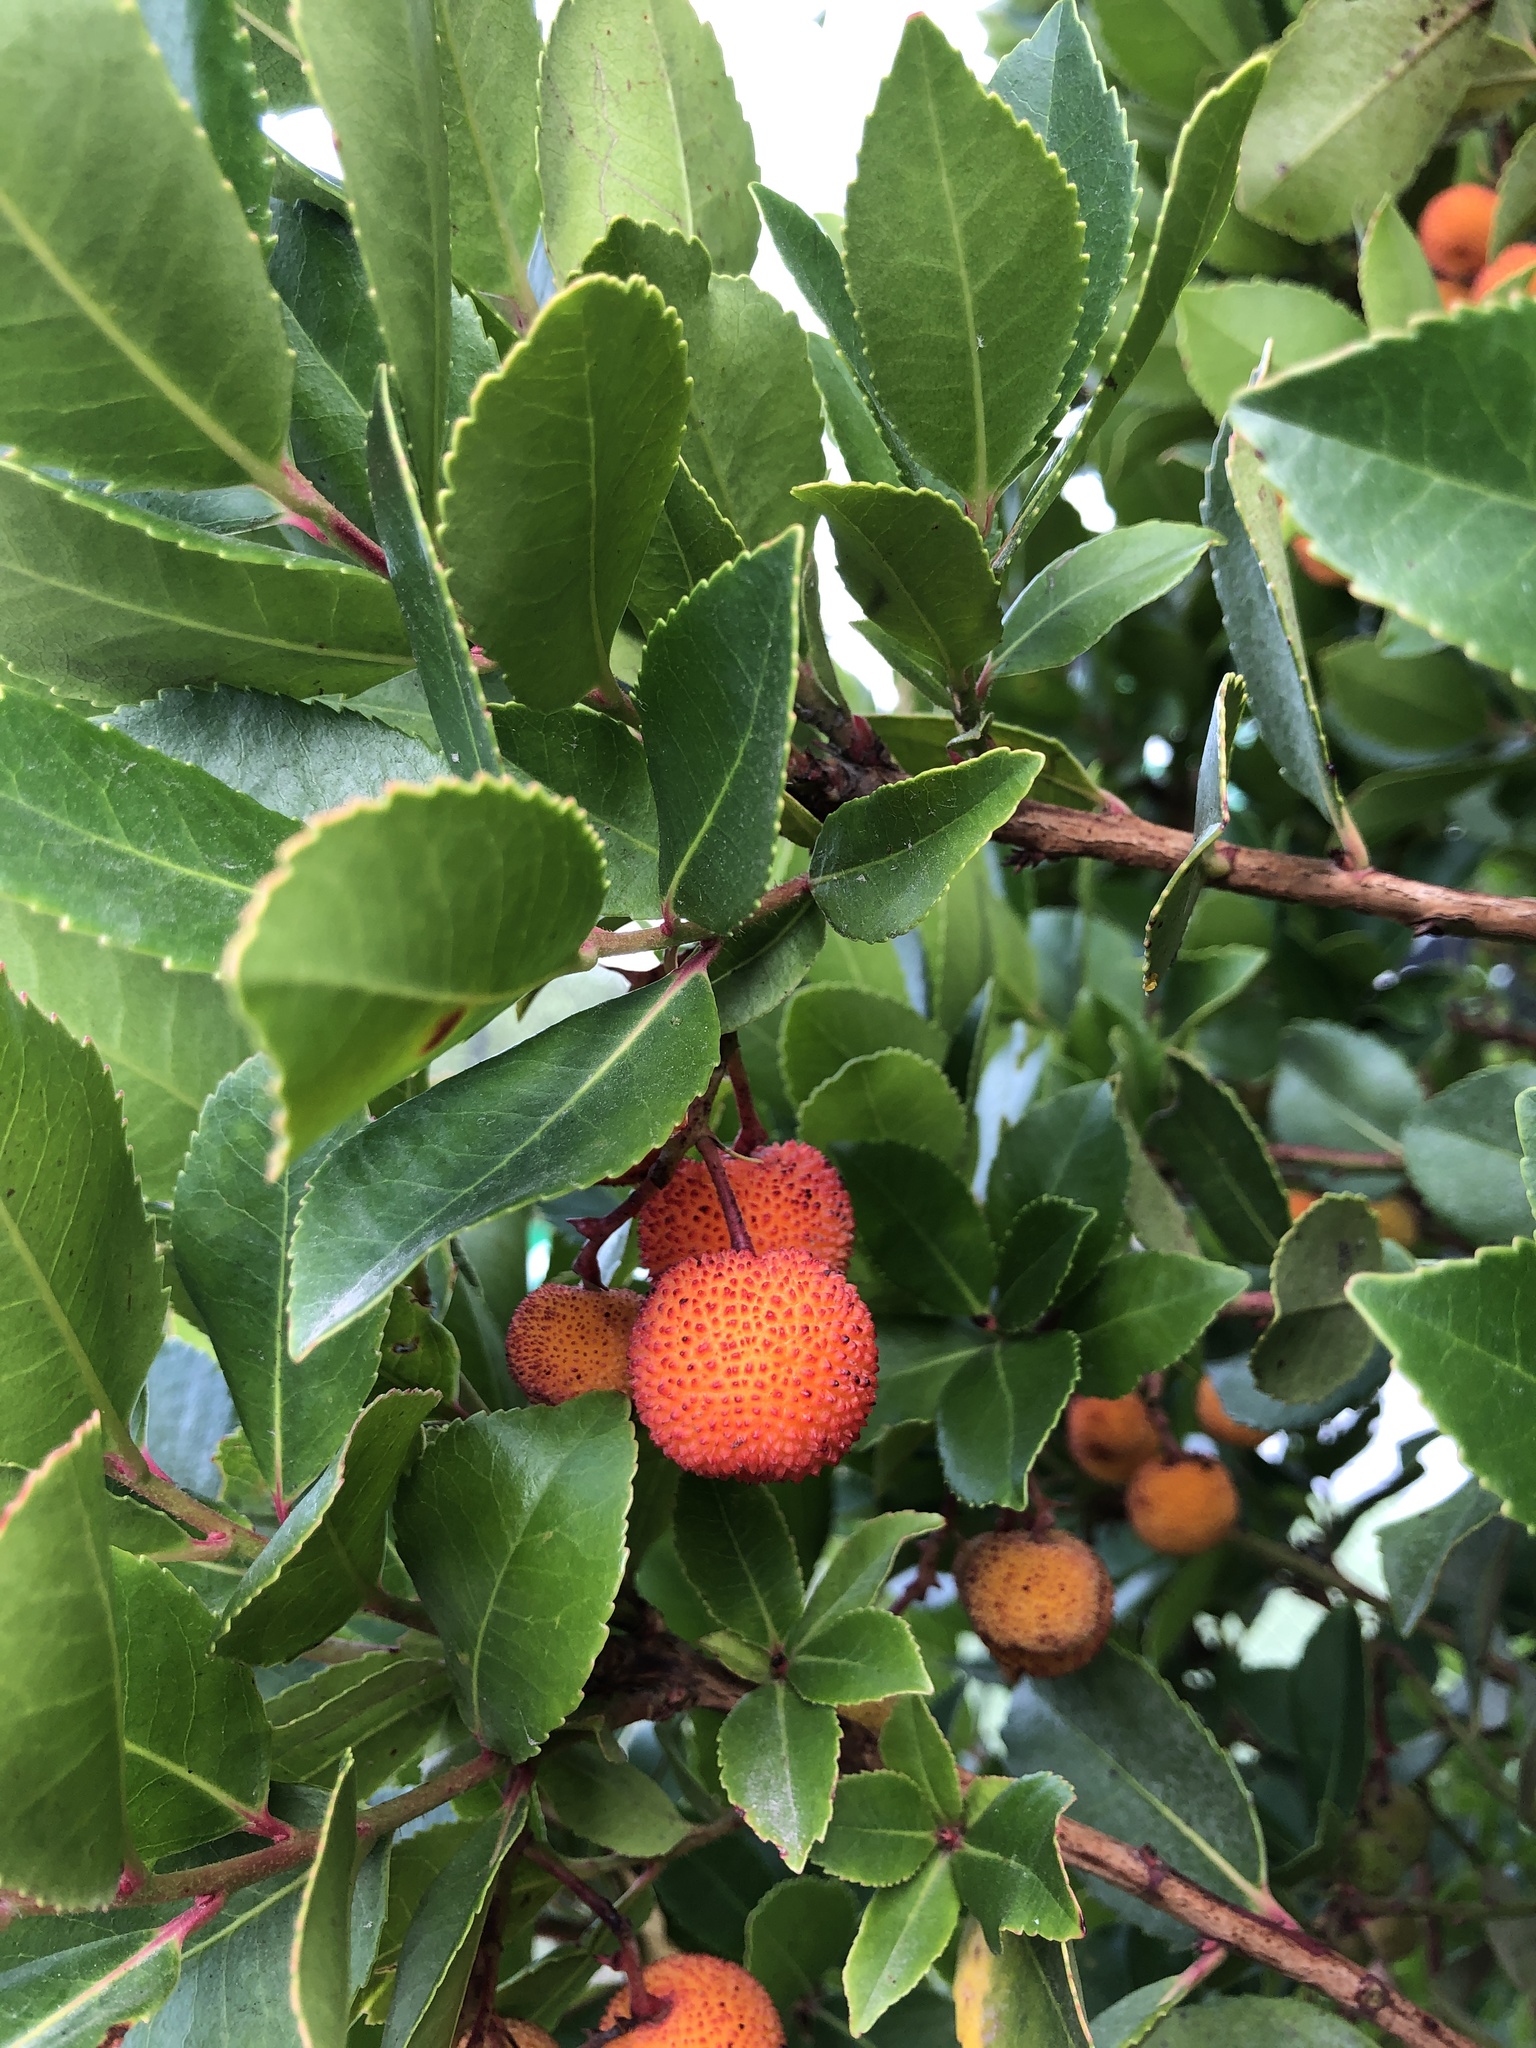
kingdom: Plantae
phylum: Tracheophyta
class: Magnoliopsida
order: Ericales
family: Ericaceae
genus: Arbutus
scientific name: Arbutus unedo
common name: Strawberry-tree
